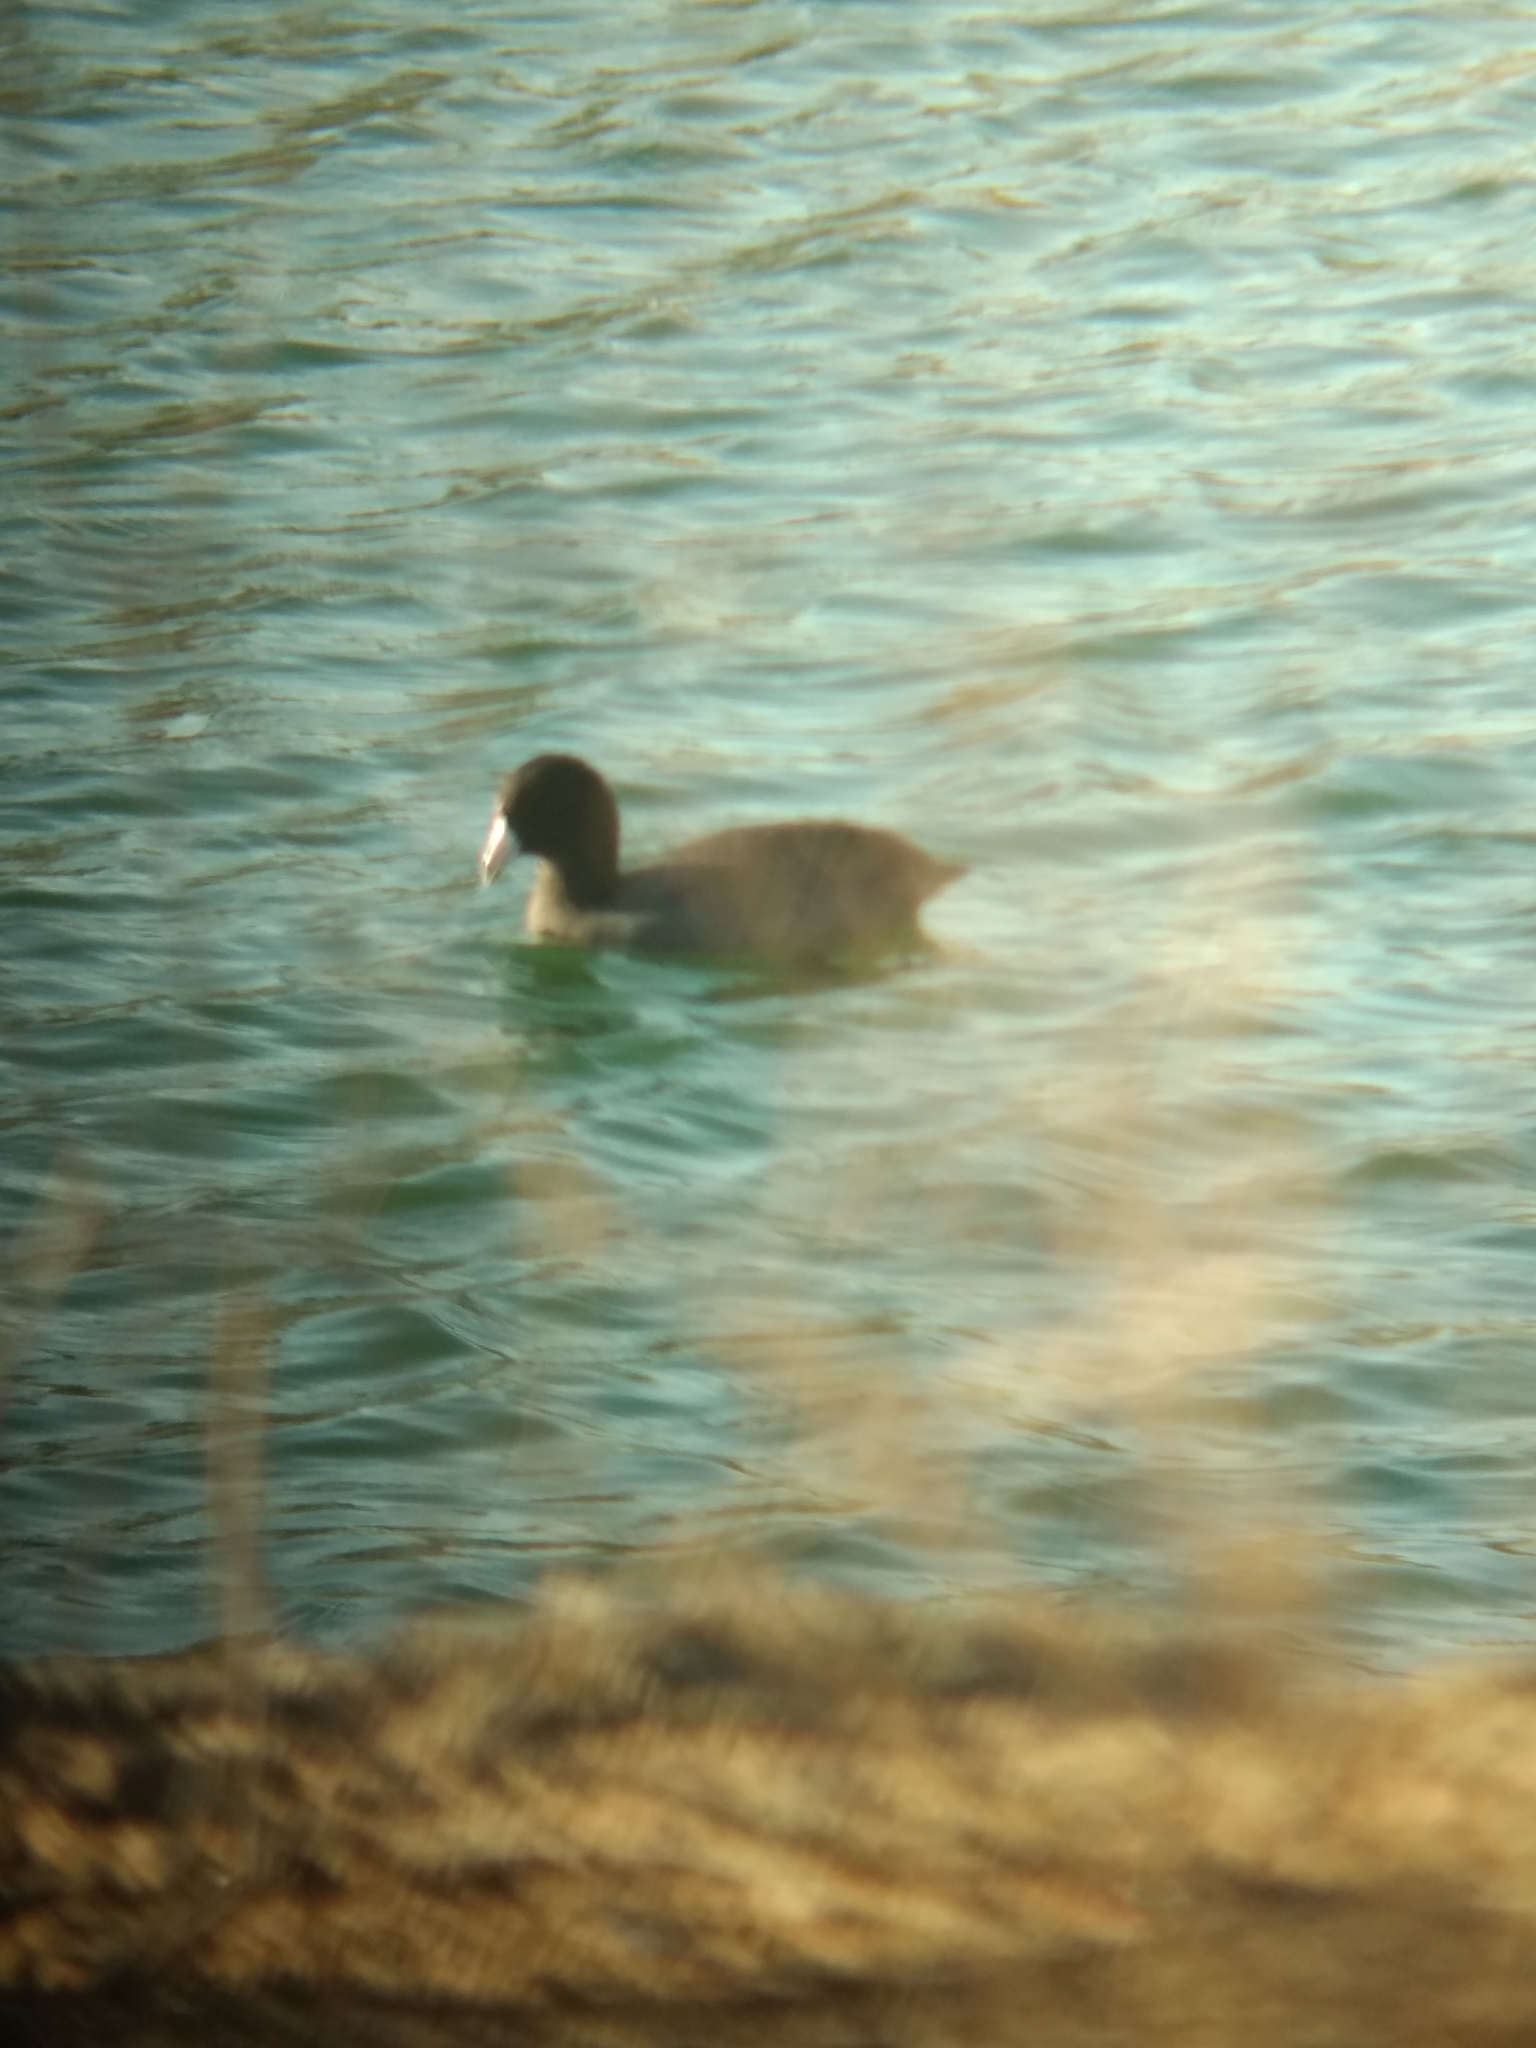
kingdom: Animalia
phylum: Chordata
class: Aves
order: Gruiformes
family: Rallidae
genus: Fulica
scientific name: Fulica americana
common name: American coot
